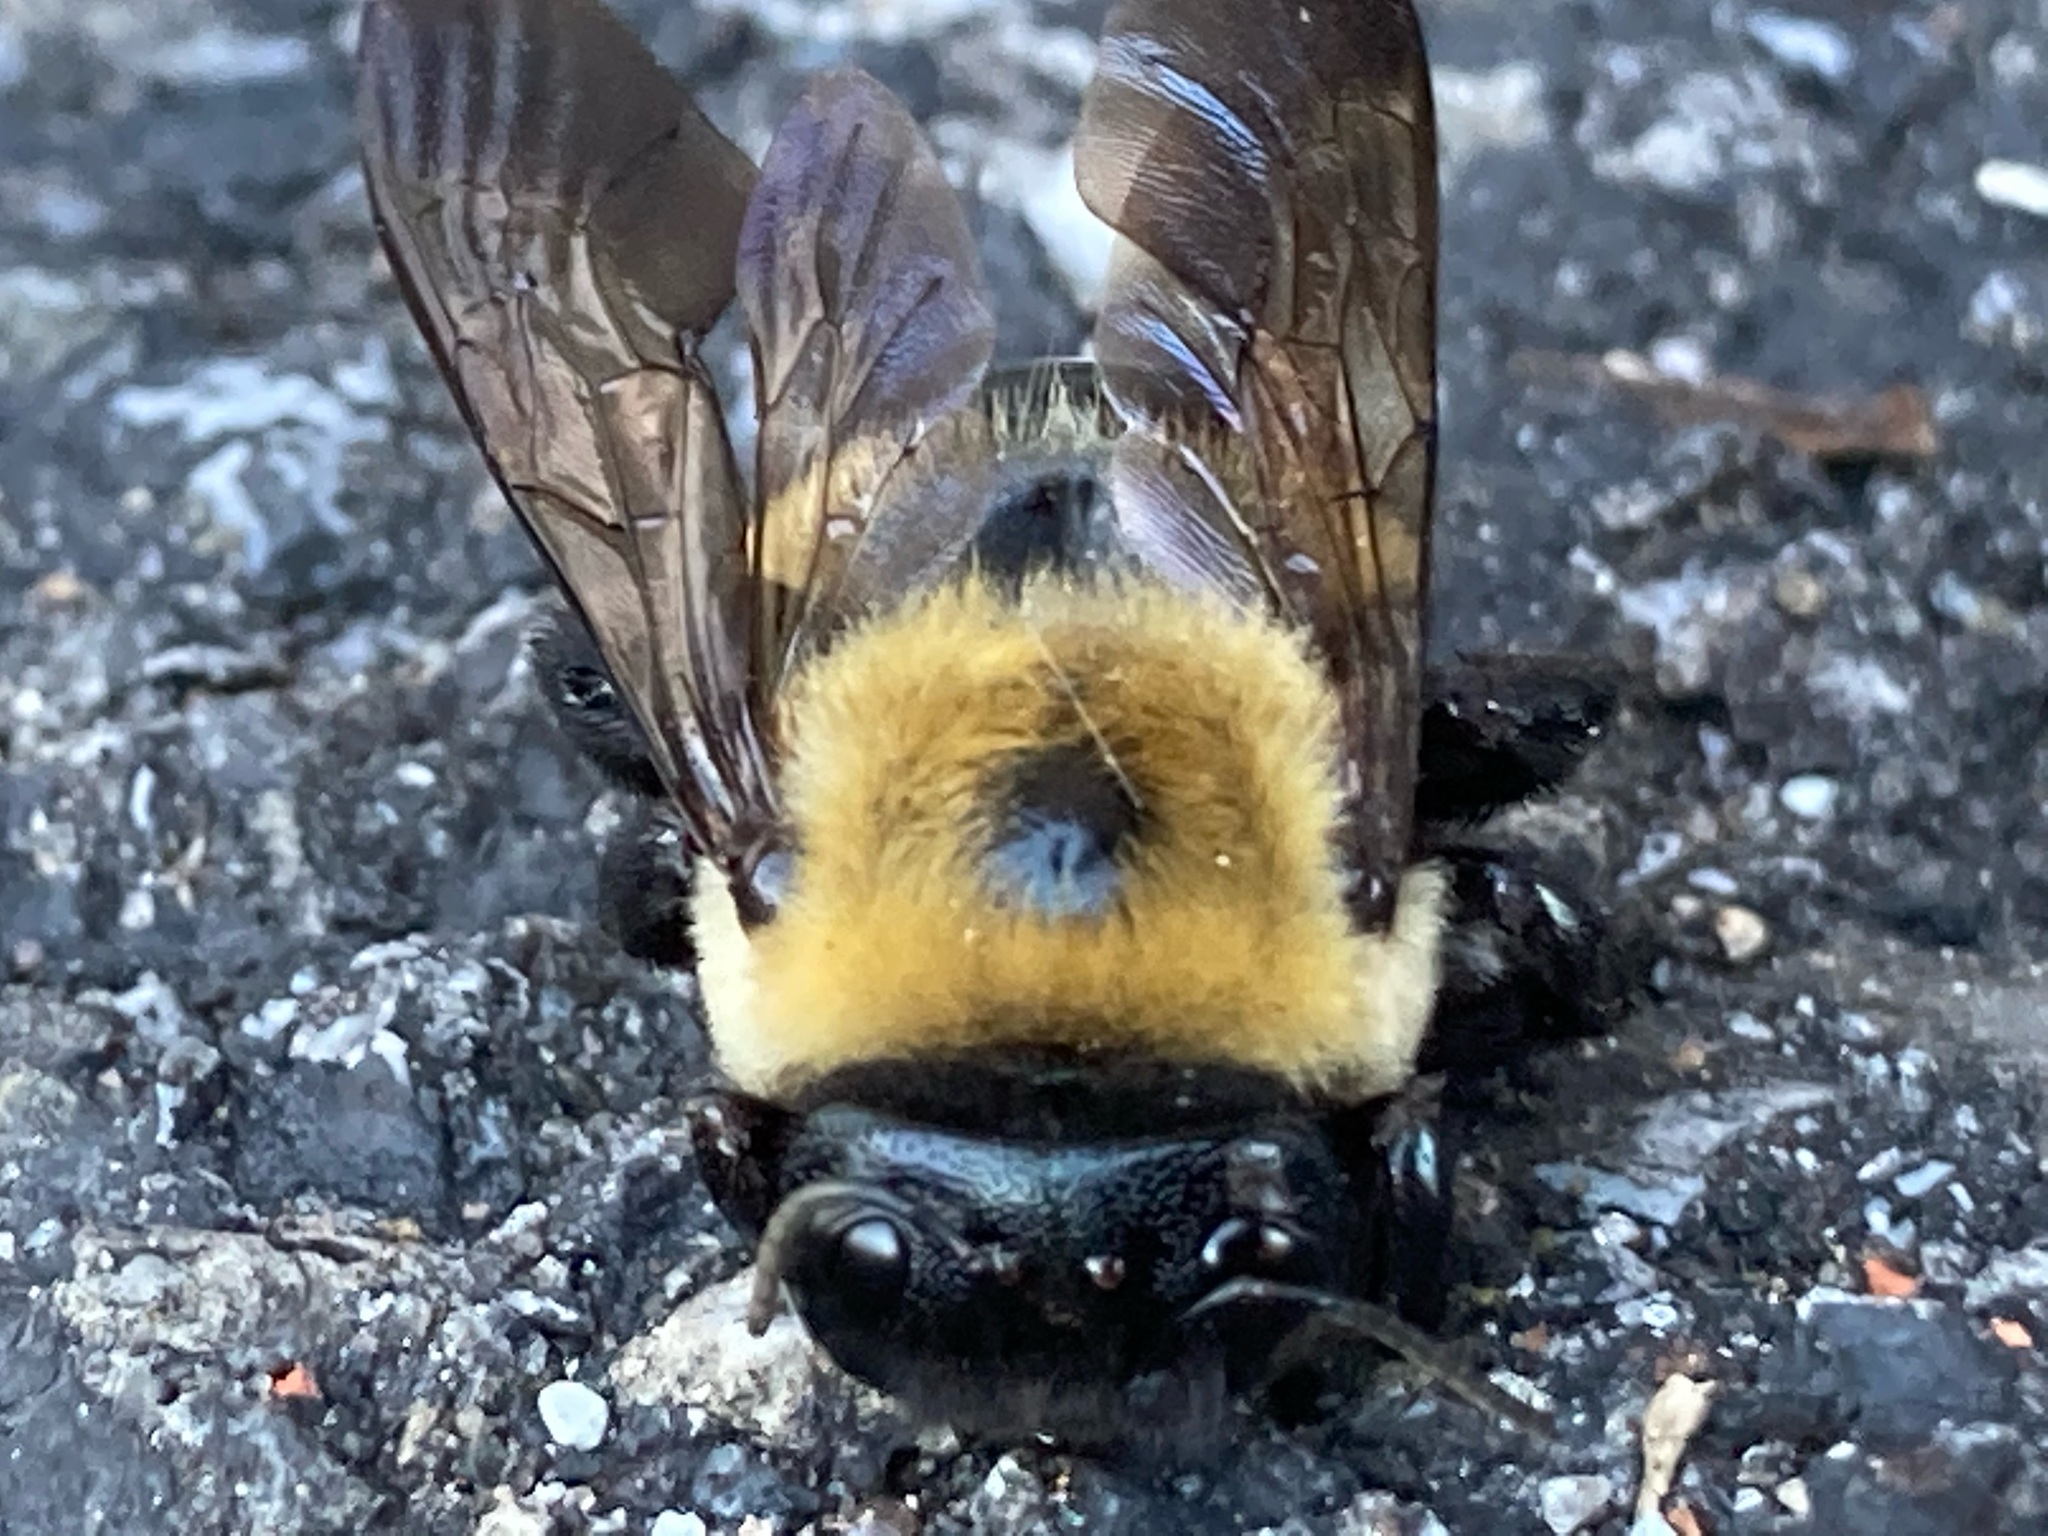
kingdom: Animalia
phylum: Arthropoda
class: Insecta
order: Hymenoptera
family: Apidae
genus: Xylocopa
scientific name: Xylocopa virginica
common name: Carpenter bee
